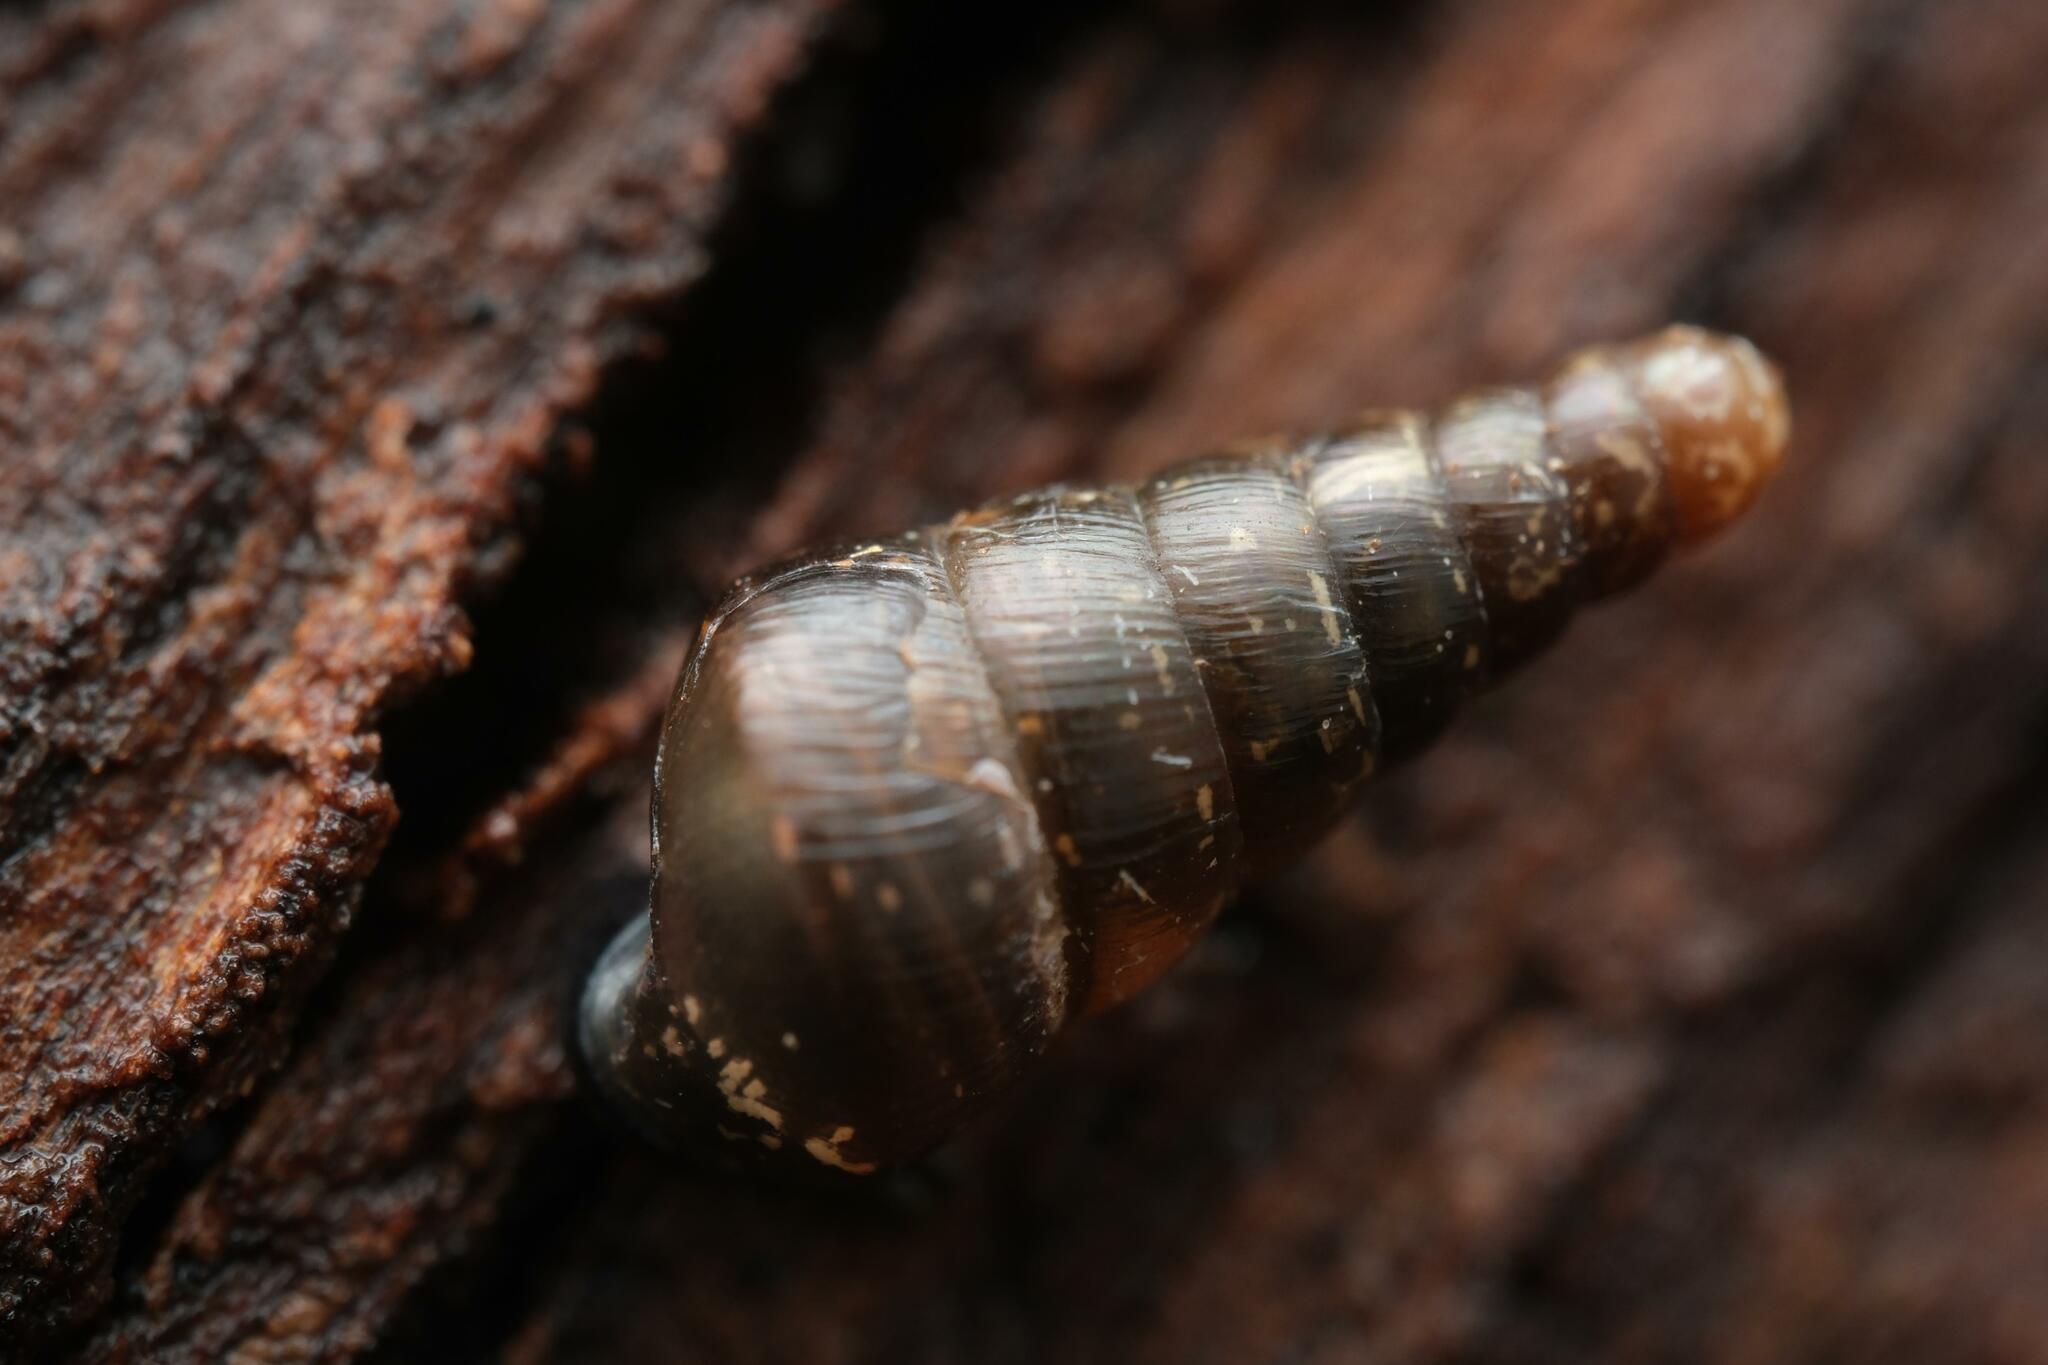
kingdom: Animalia
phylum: Mollusca
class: Gastropoda
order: Stylommatophora
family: Clausiliidae
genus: Cochlodina
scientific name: Cochlodina laminata
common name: Plaited door snail
